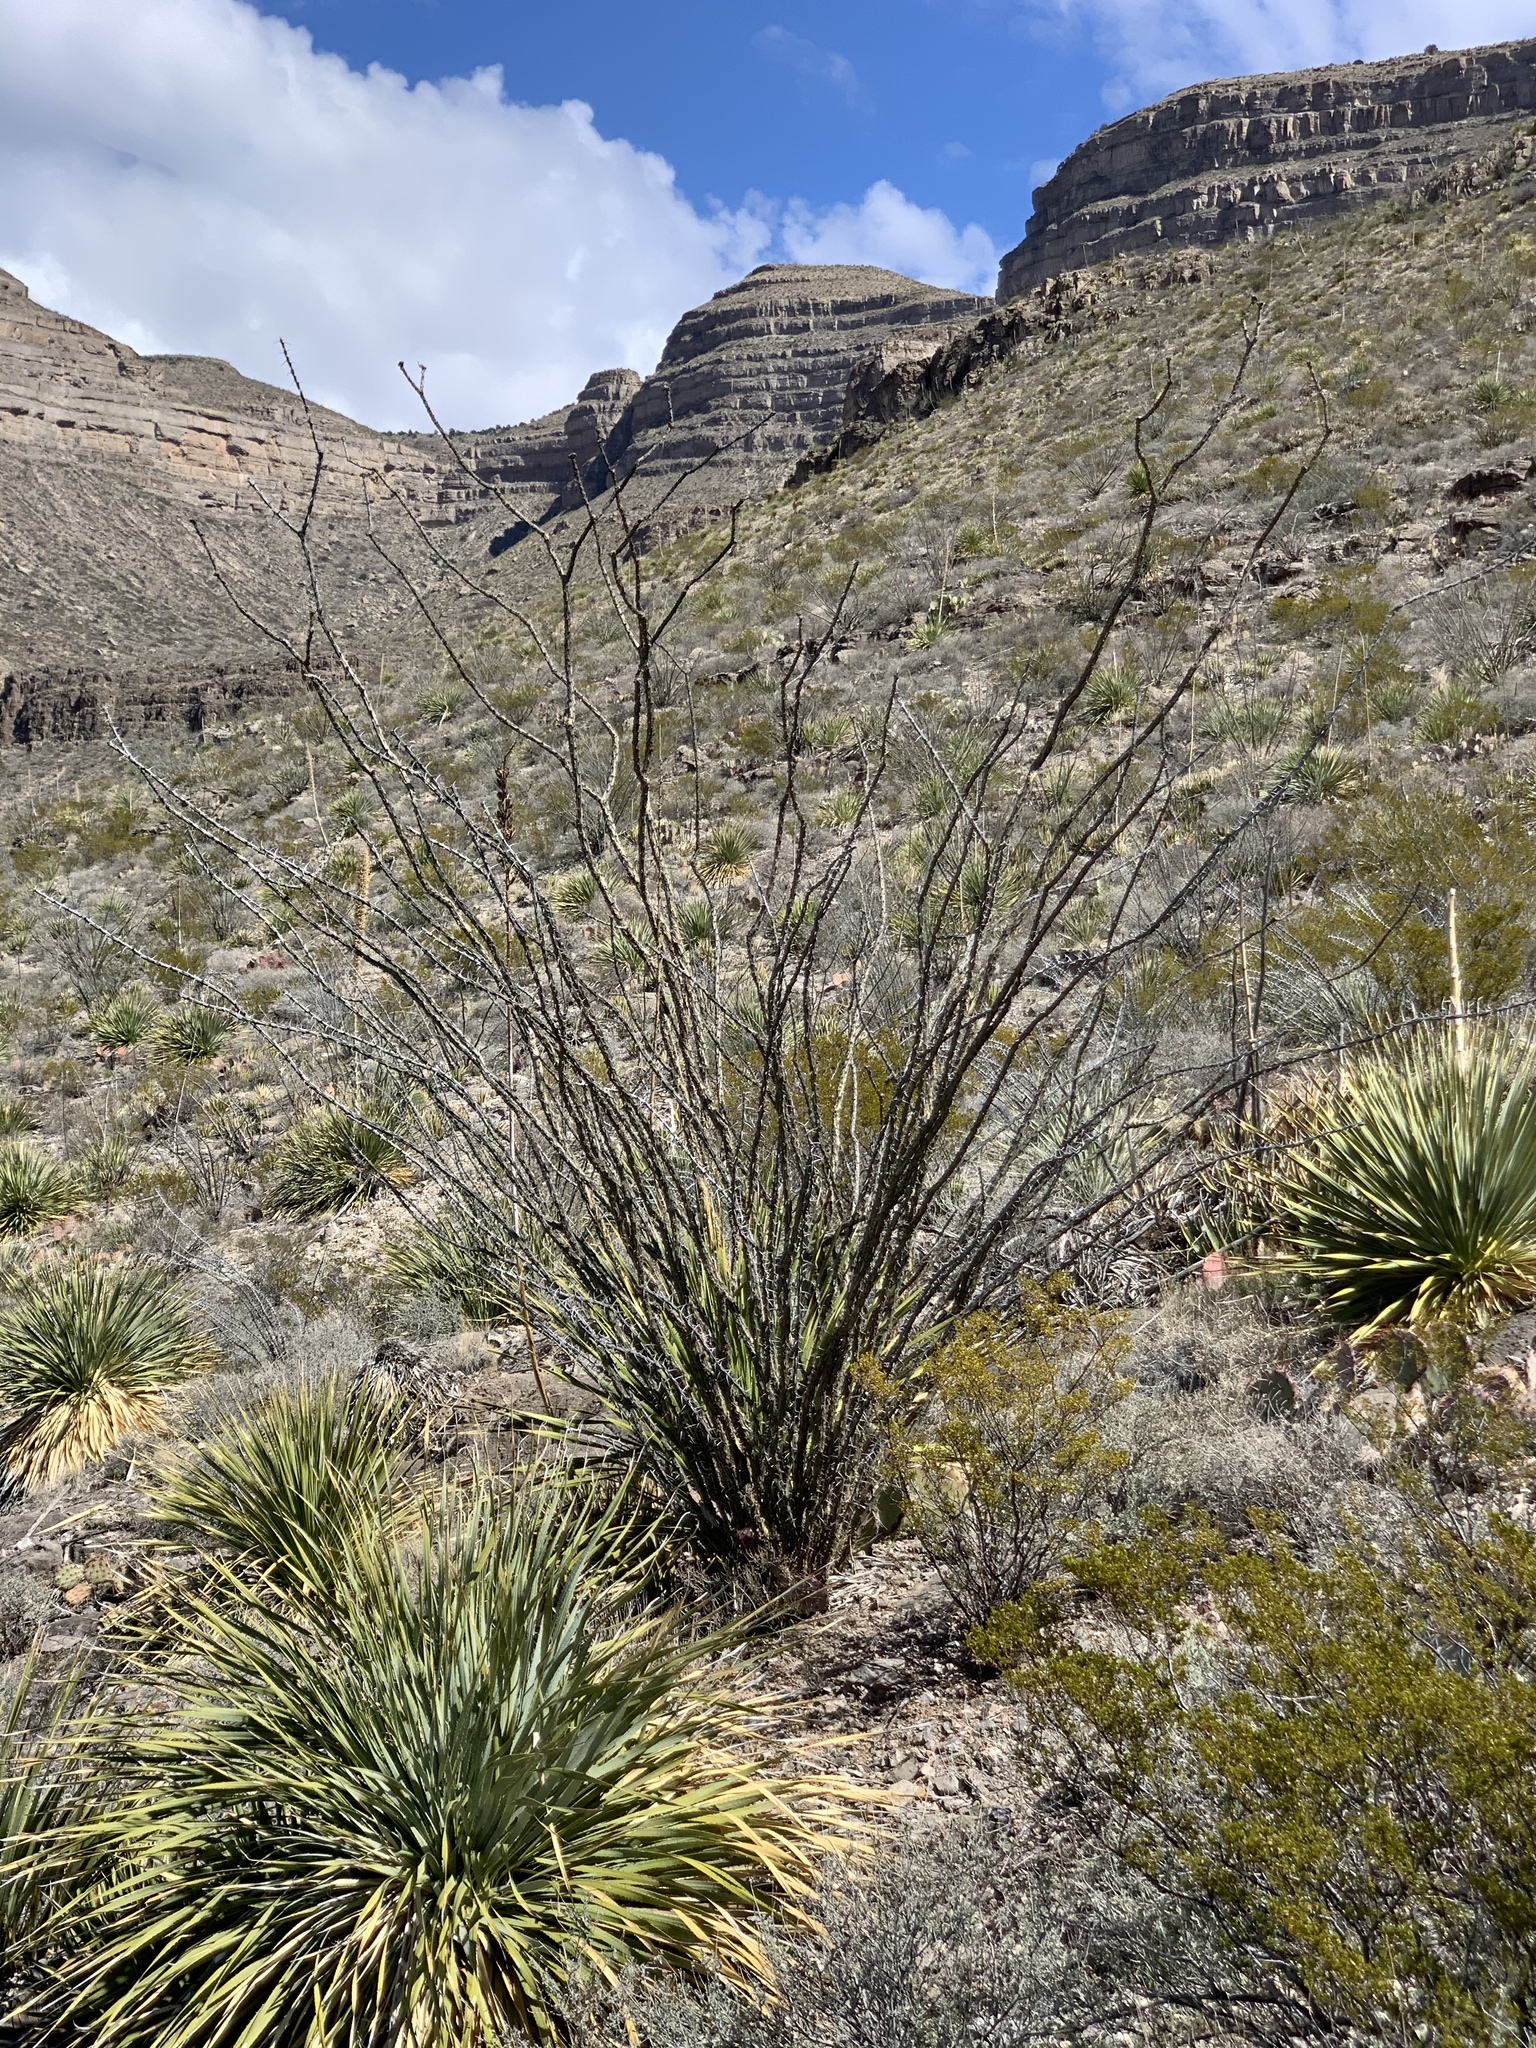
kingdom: Plantae
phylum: Tracheophyta
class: Magnoliopsida
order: Ericales
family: Fouquieriaceae
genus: Fouquieria
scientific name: Fouquieria splendens
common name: Vine-cactus
